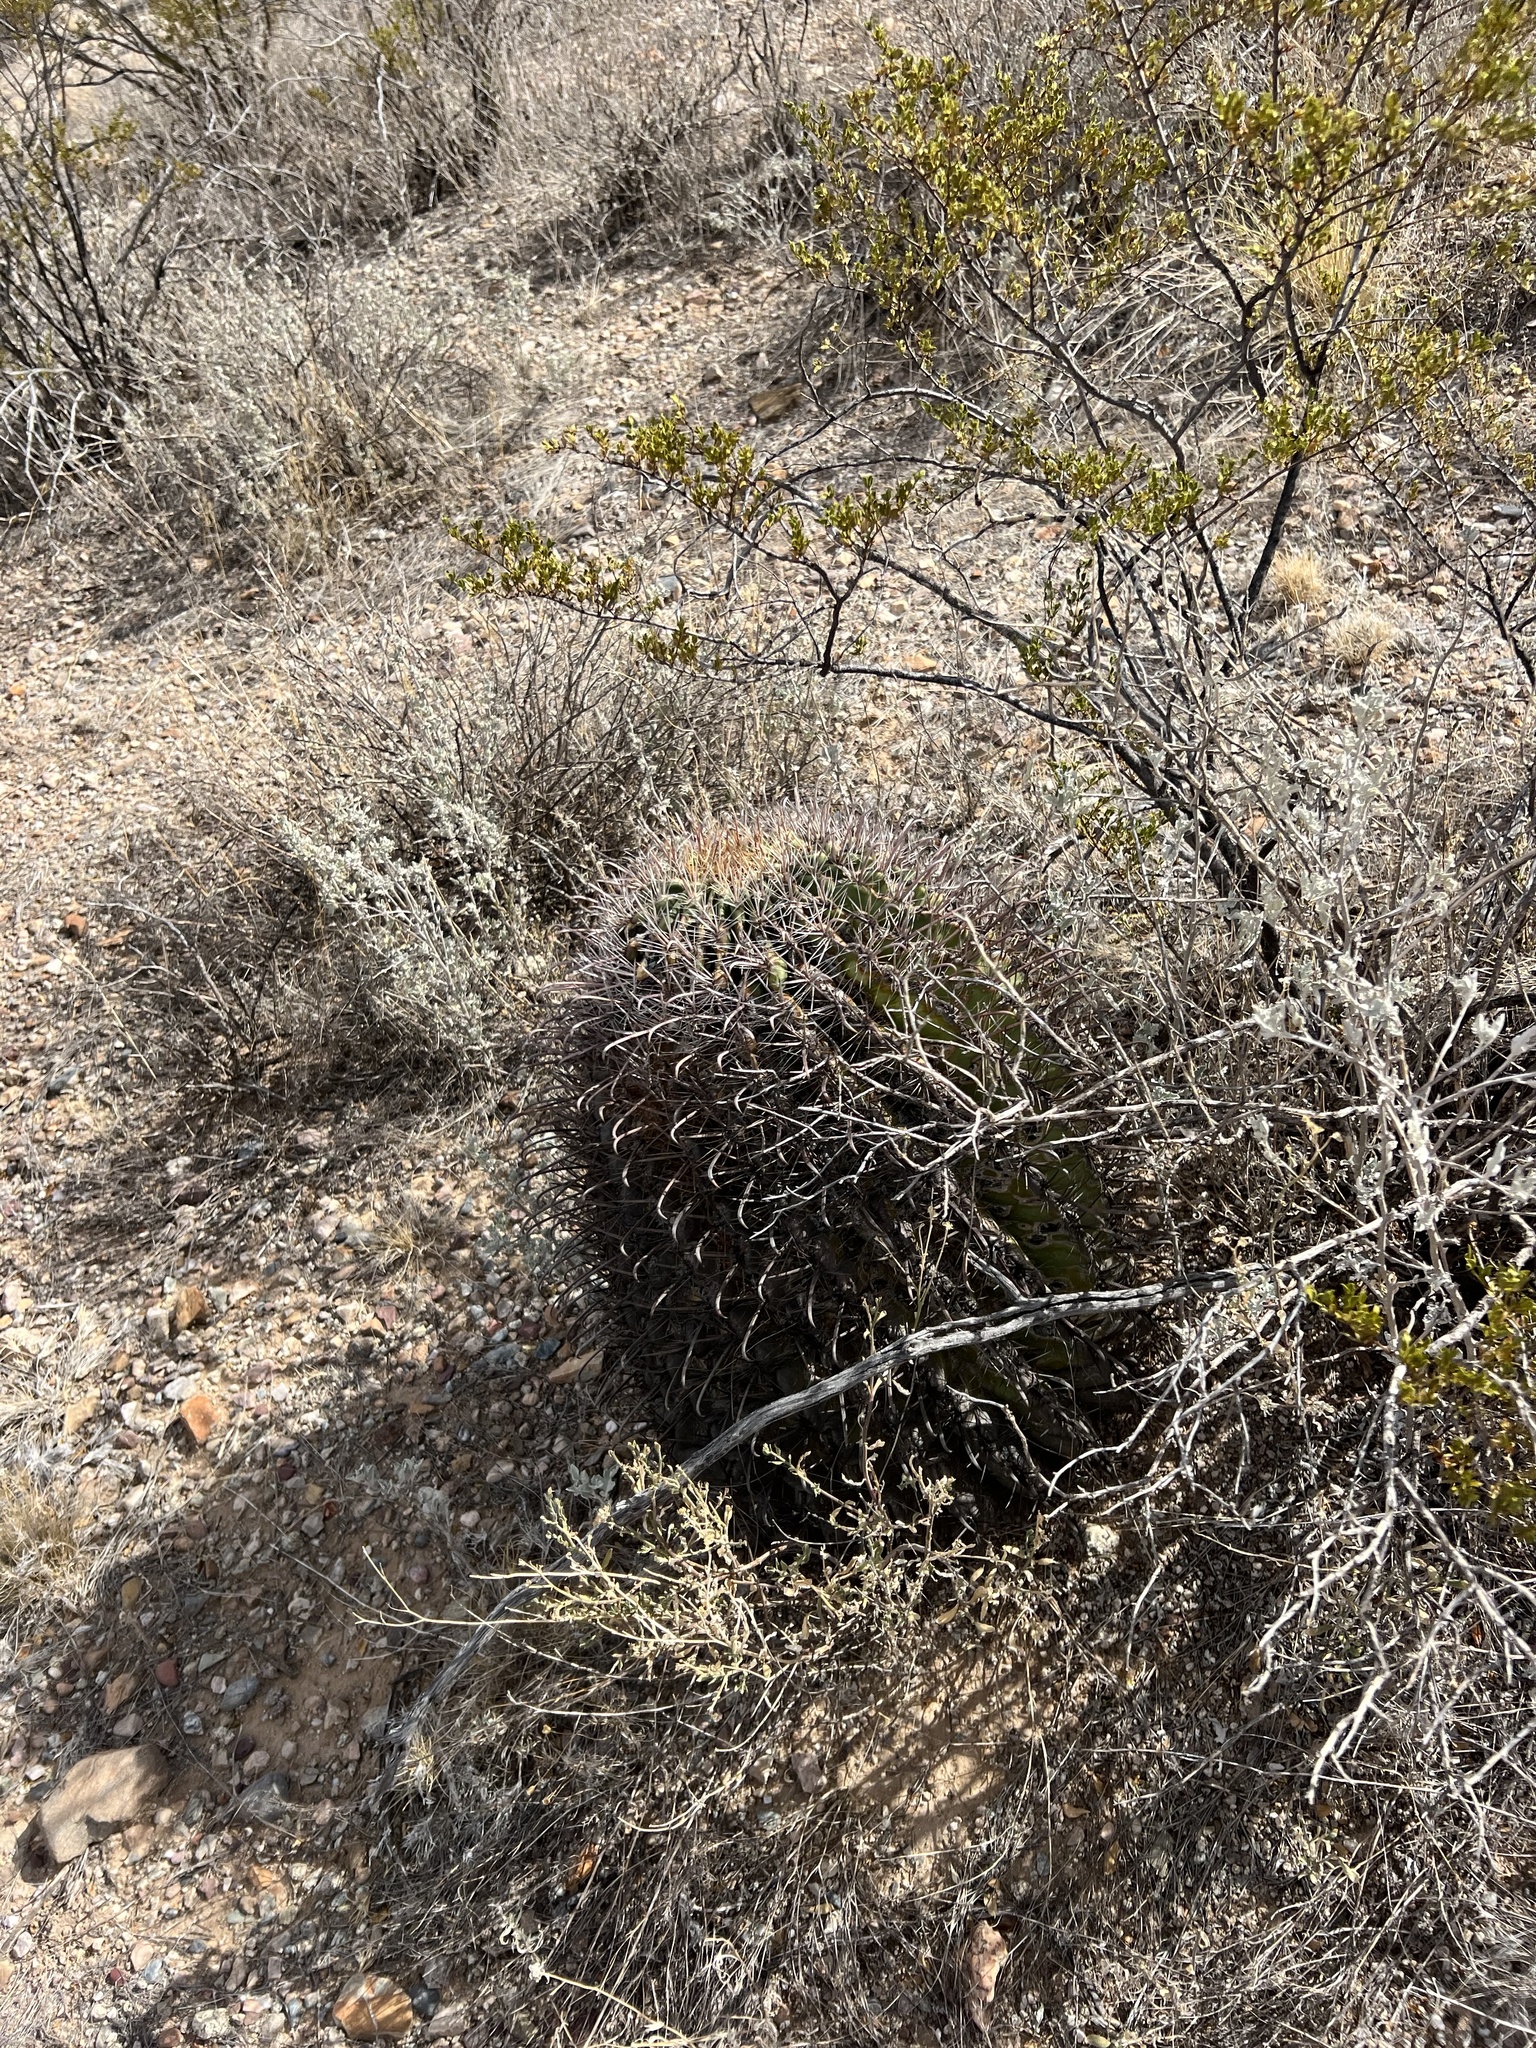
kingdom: Plantae
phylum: Tracheophyta
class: Magnoliopsida
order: Caryophyllales
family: Cactaceae
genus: Ferocactus
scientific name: Ferocactus wislizeni
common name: Candy barrel cactus
